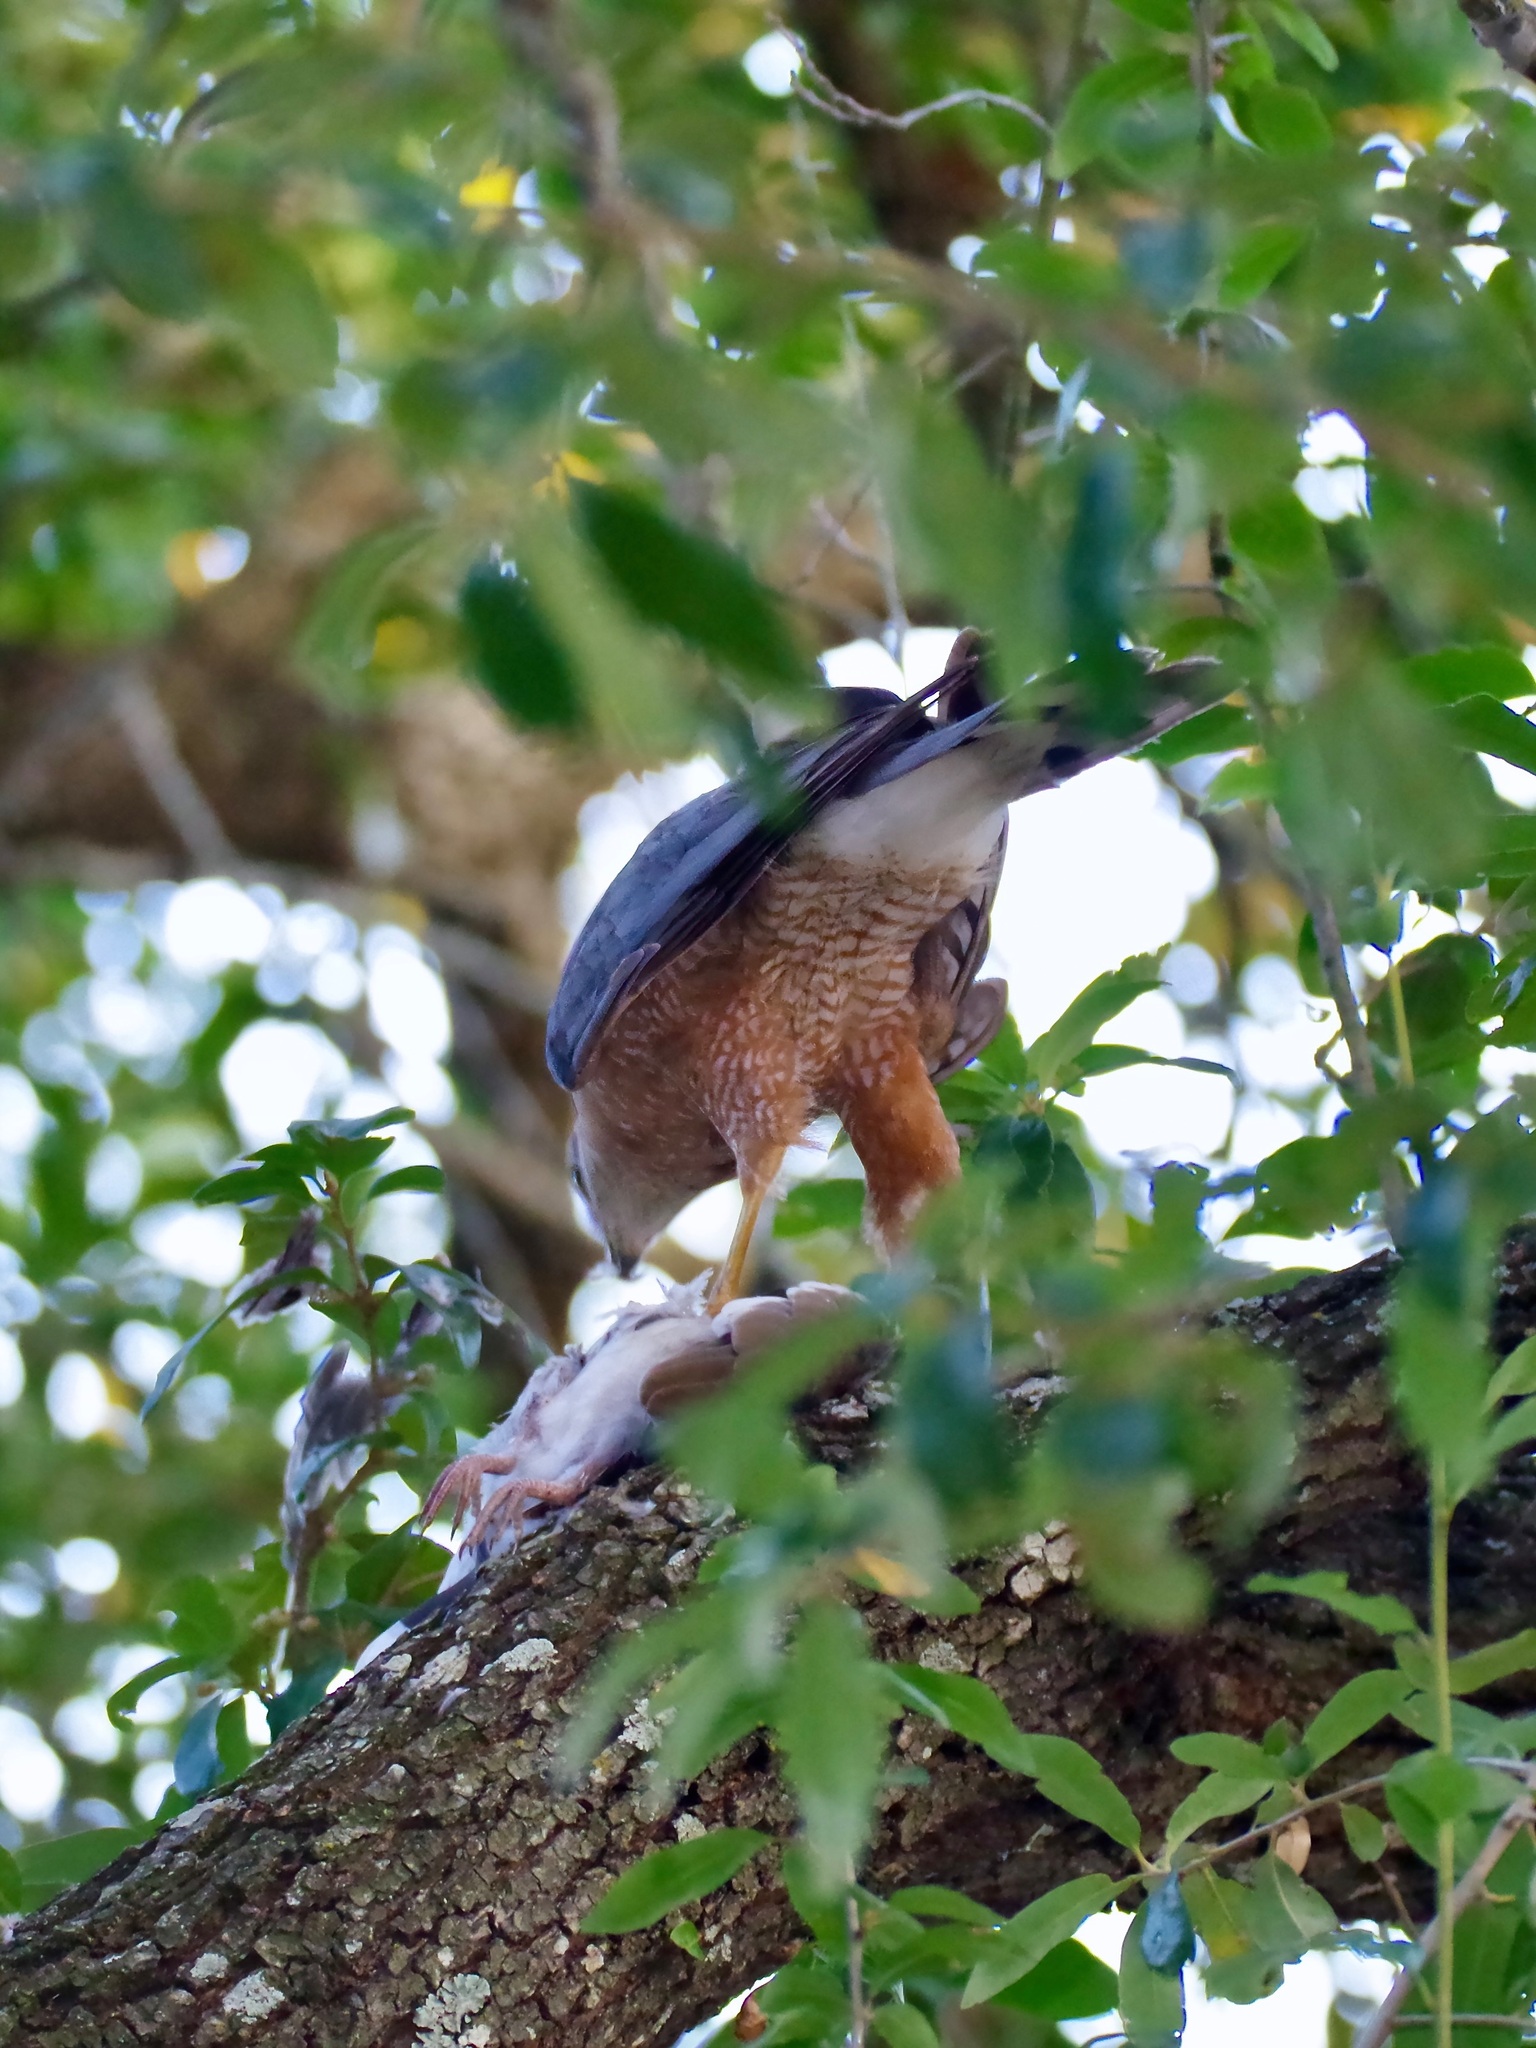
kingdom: Animalia
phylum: Chordata
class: Aves
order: Accipitriformes
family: Accipitridae
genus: Accipiter
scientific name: Accipiter cooperii
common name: Cooper's hawk
